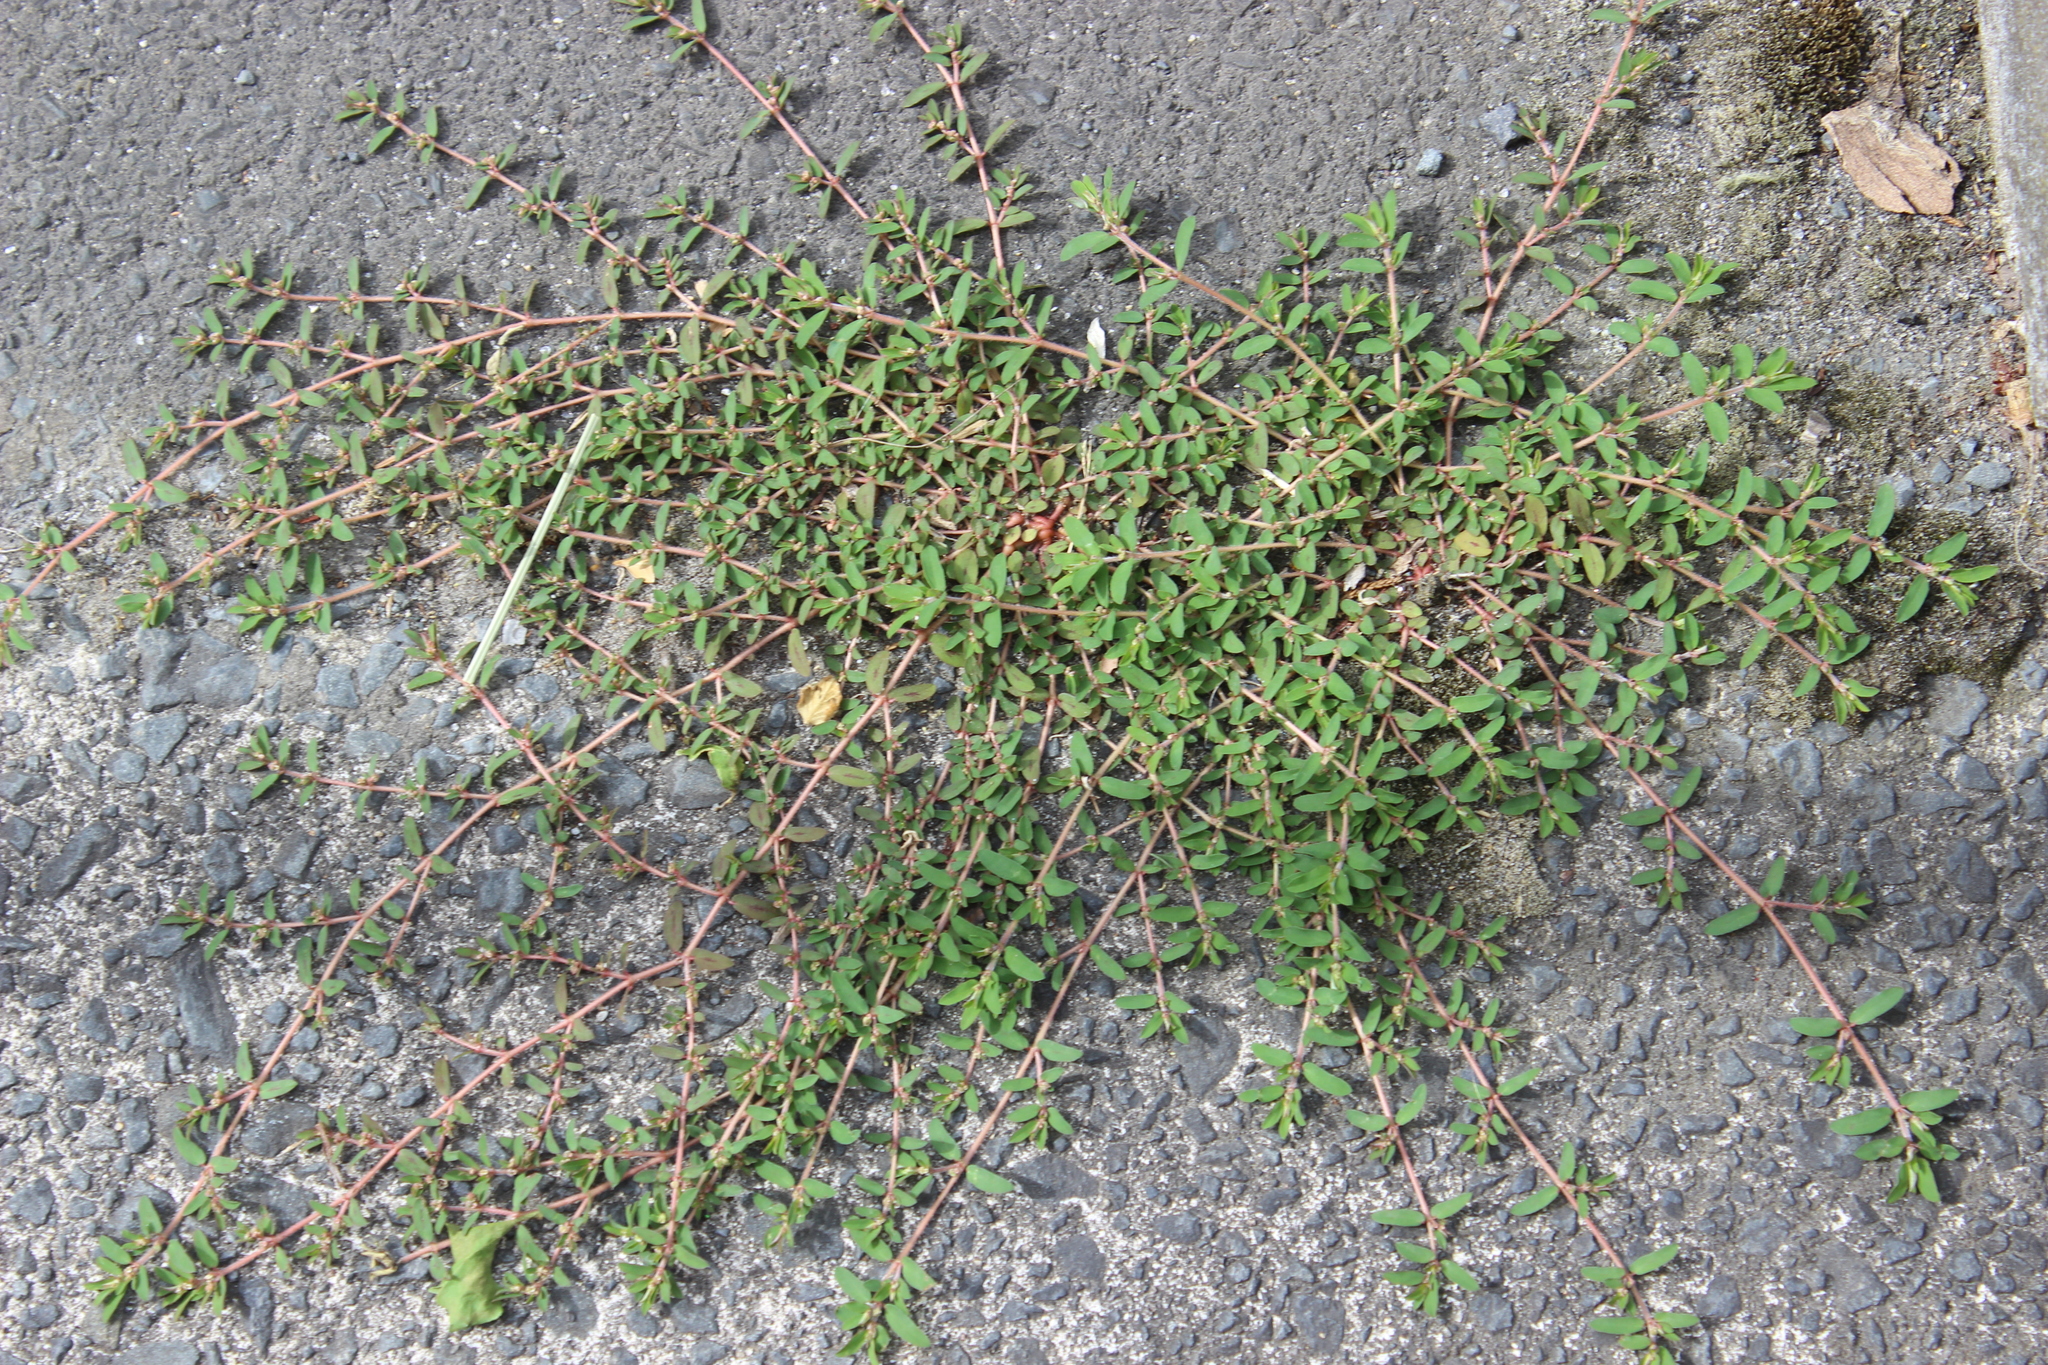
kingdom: Plantae
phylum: Tracheophyta
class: Magnoliopsida
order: Malpighiales
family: Euphorbiaceae
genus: Euphorbia
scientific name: Euphorbia maculata
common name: Spotted spurge
